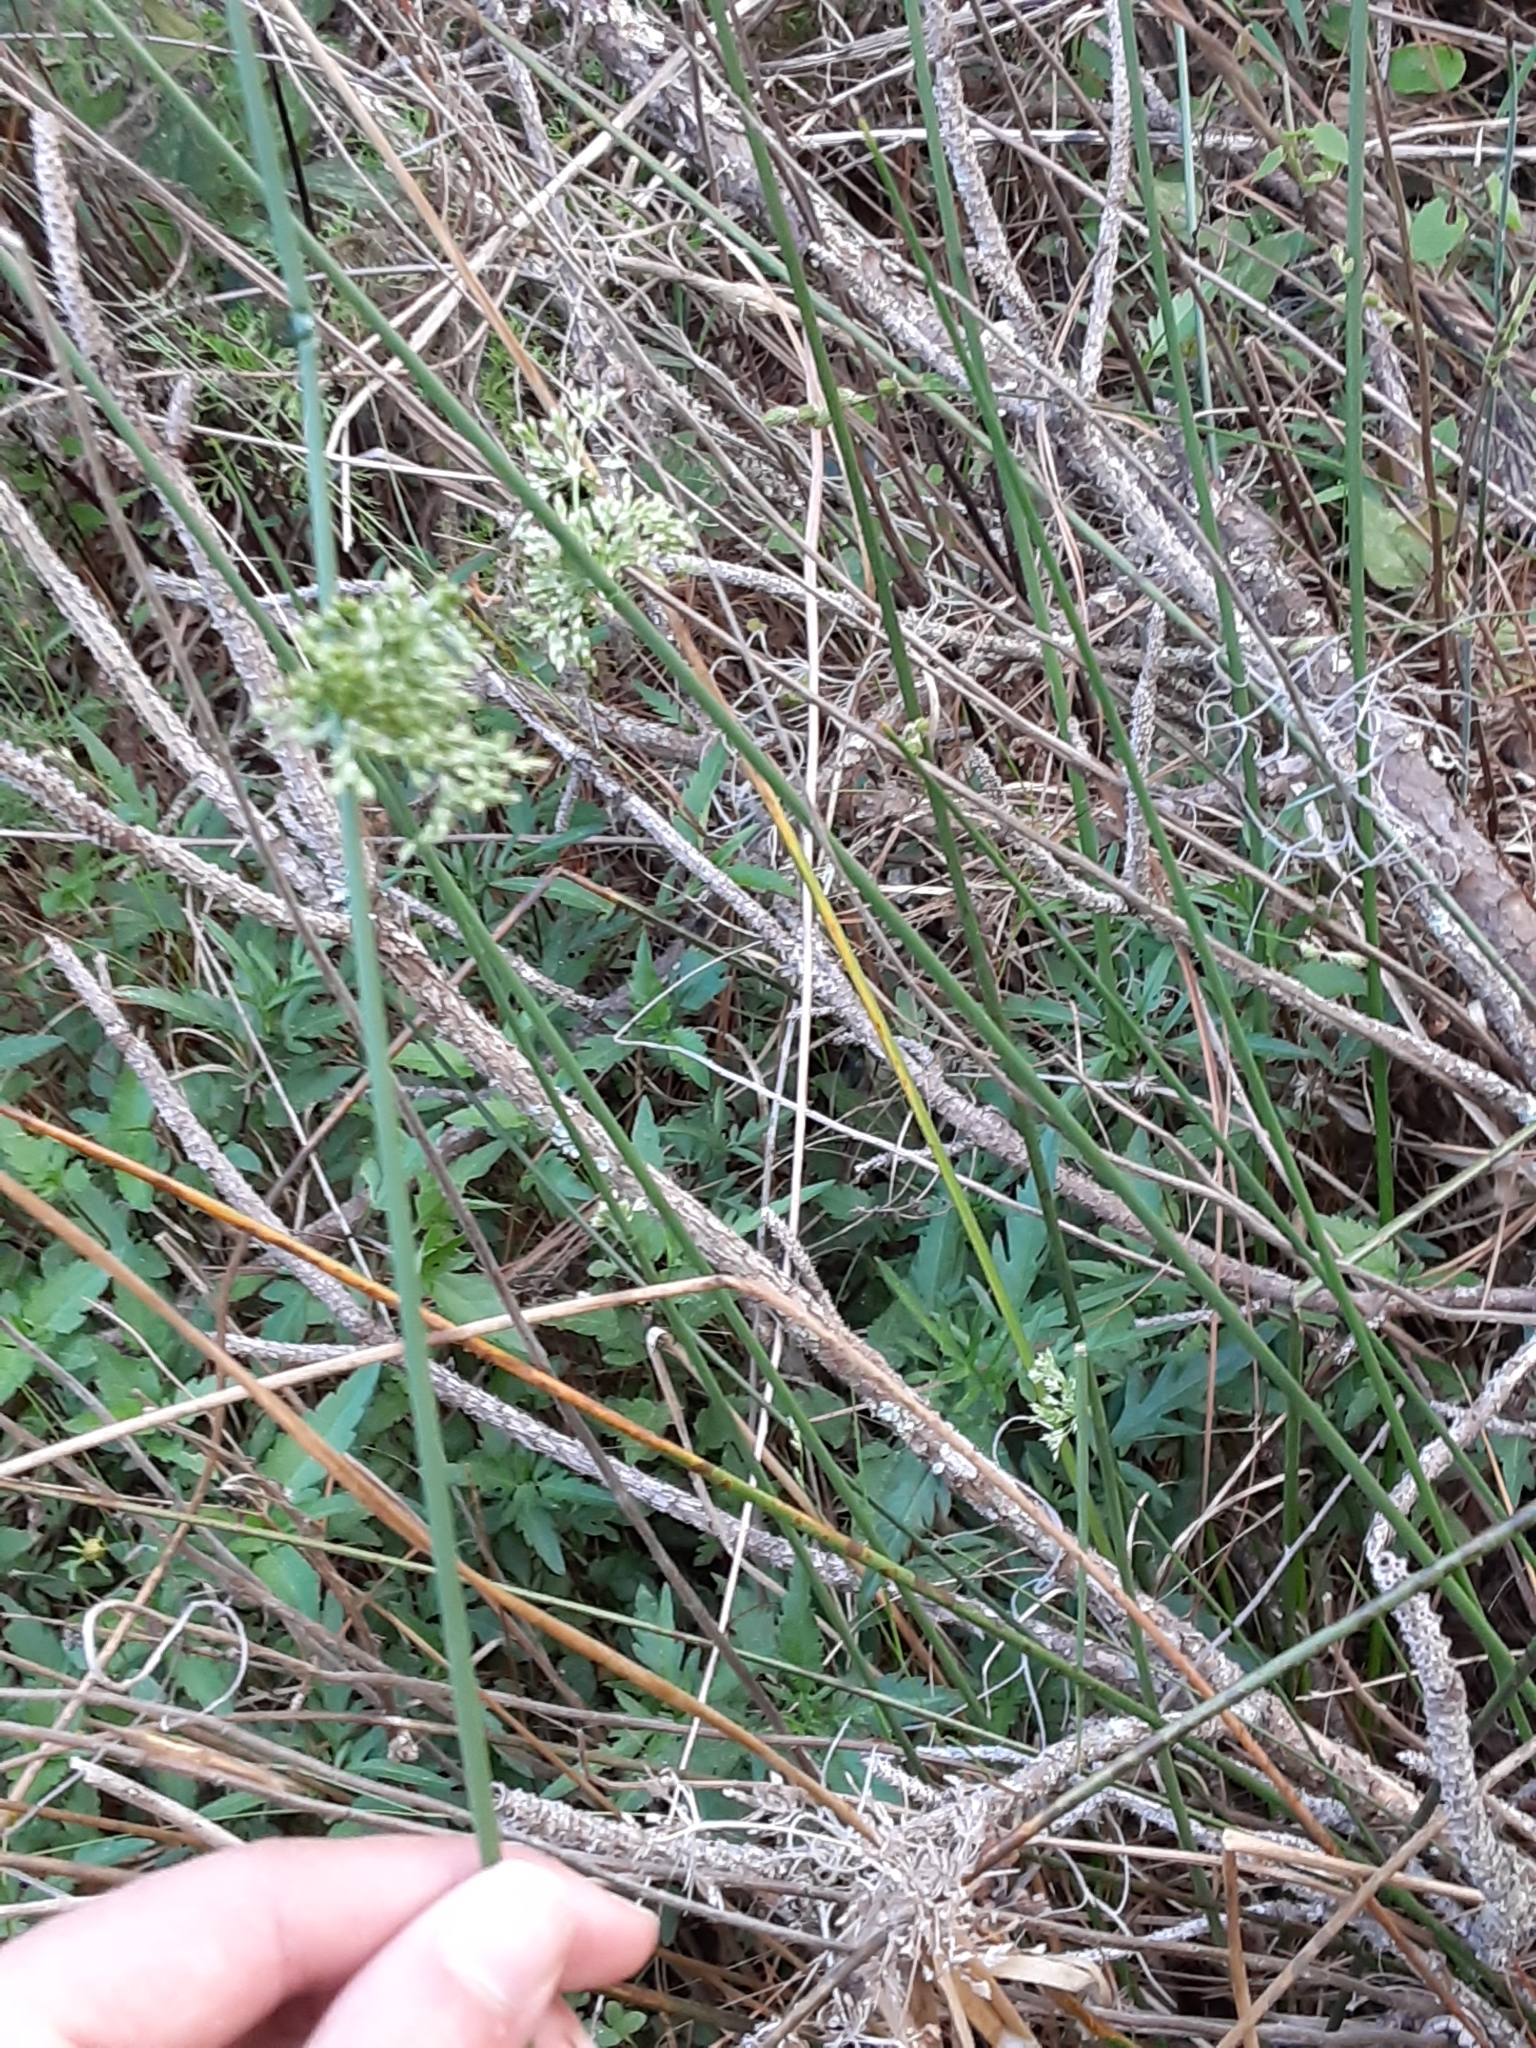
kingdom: Plantae
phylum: Tracheophyta
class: Liliopsida
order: Poales
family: Juncaceae
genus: Juncus
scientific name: Juncus effusus
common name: Soft rush
